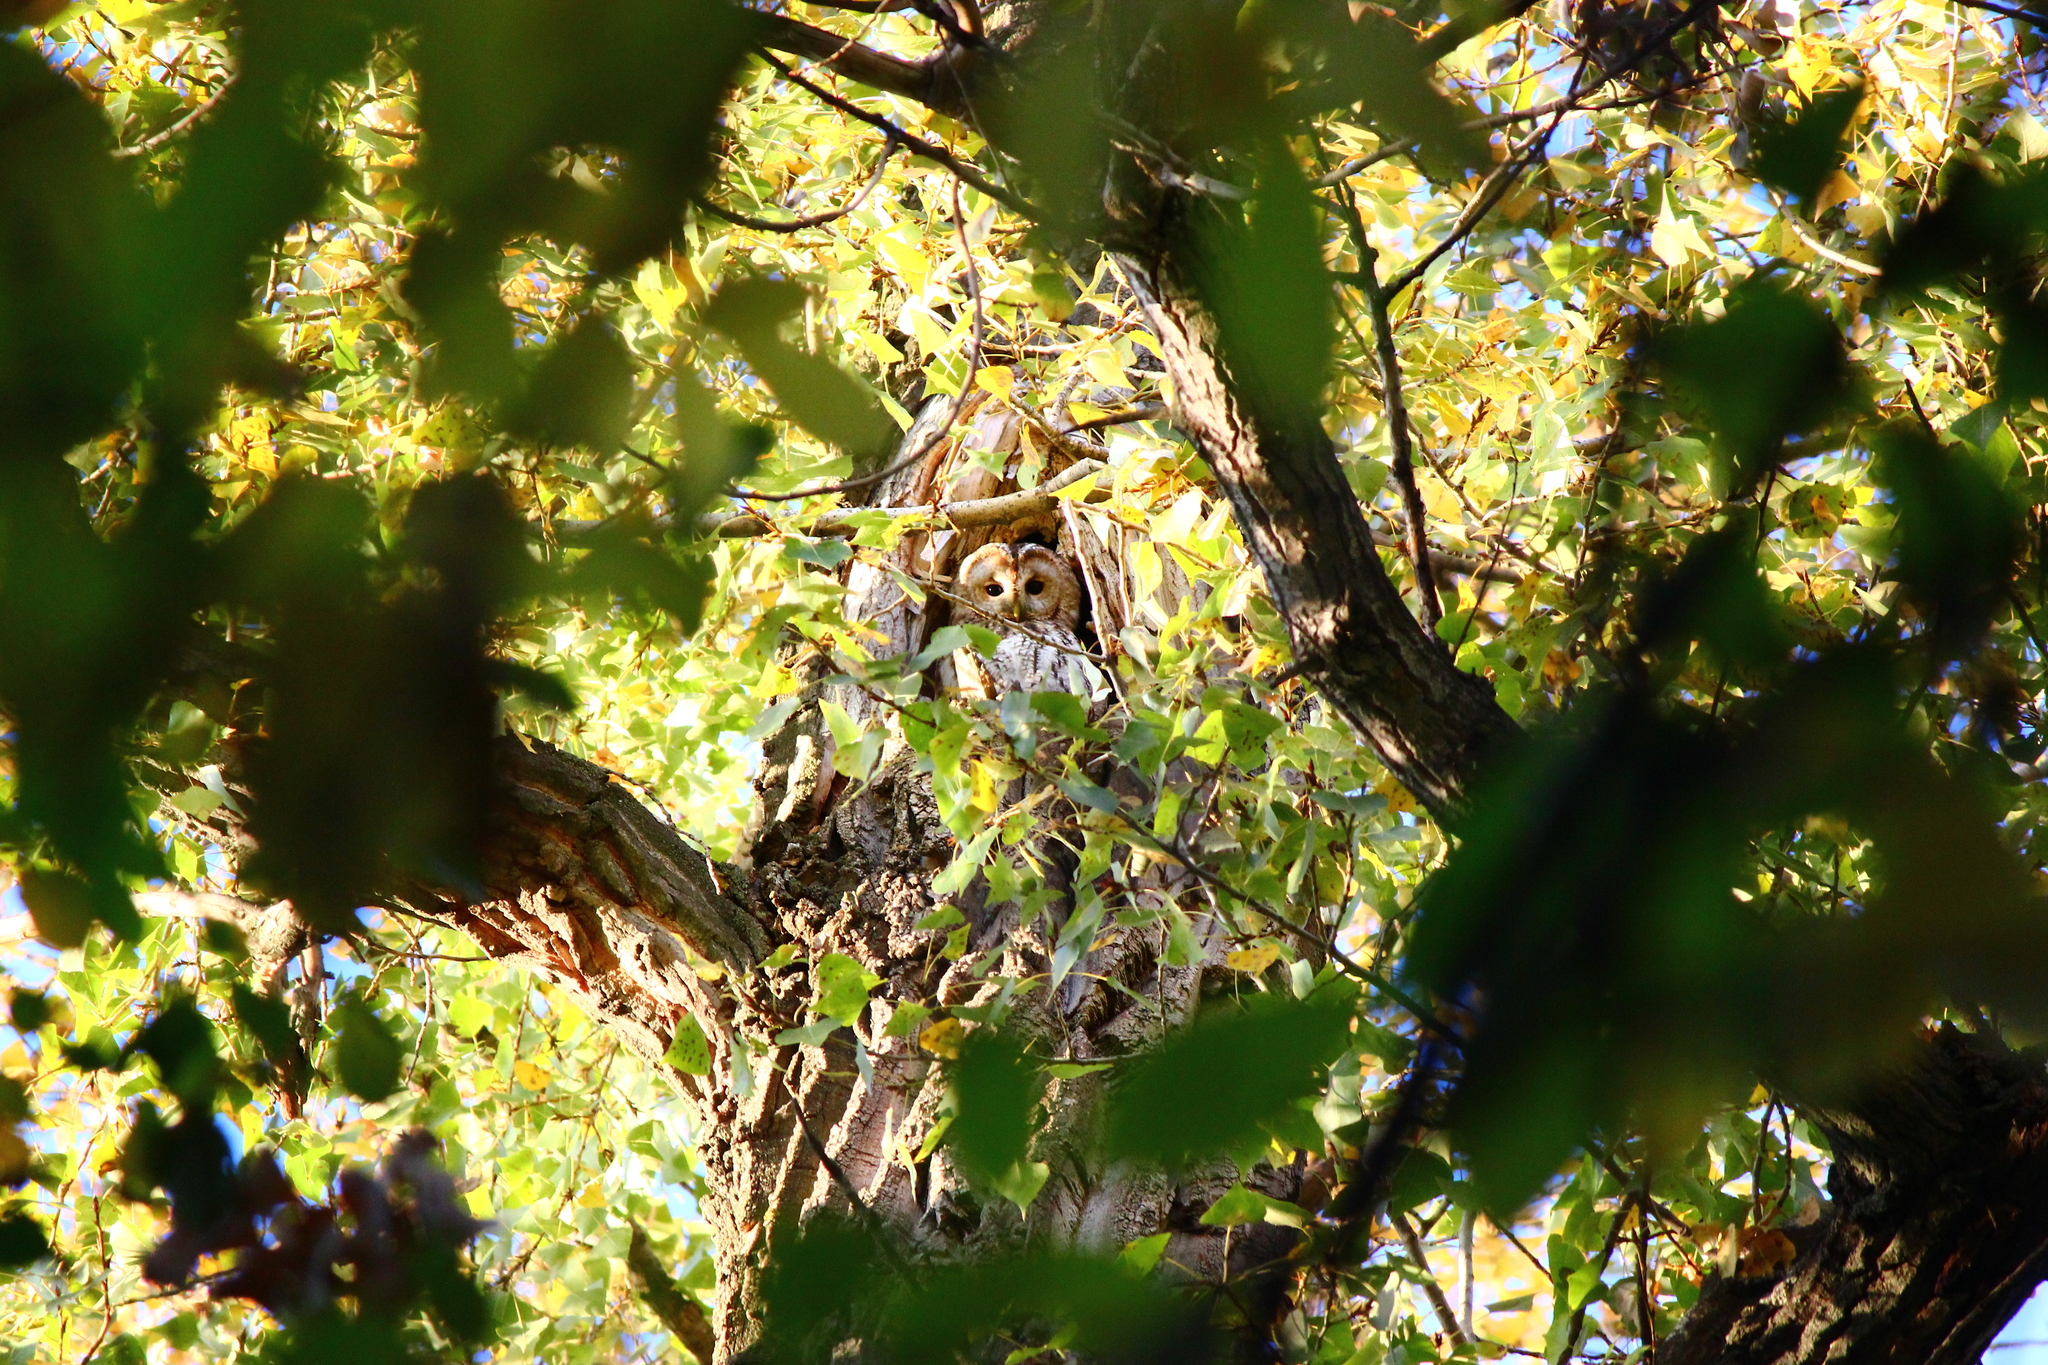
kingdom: Animalia
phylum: Chordata
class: Aves
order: Strigiformes
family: Strigidae
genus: Strix
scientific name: Strix aluco
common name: Tawny owl
